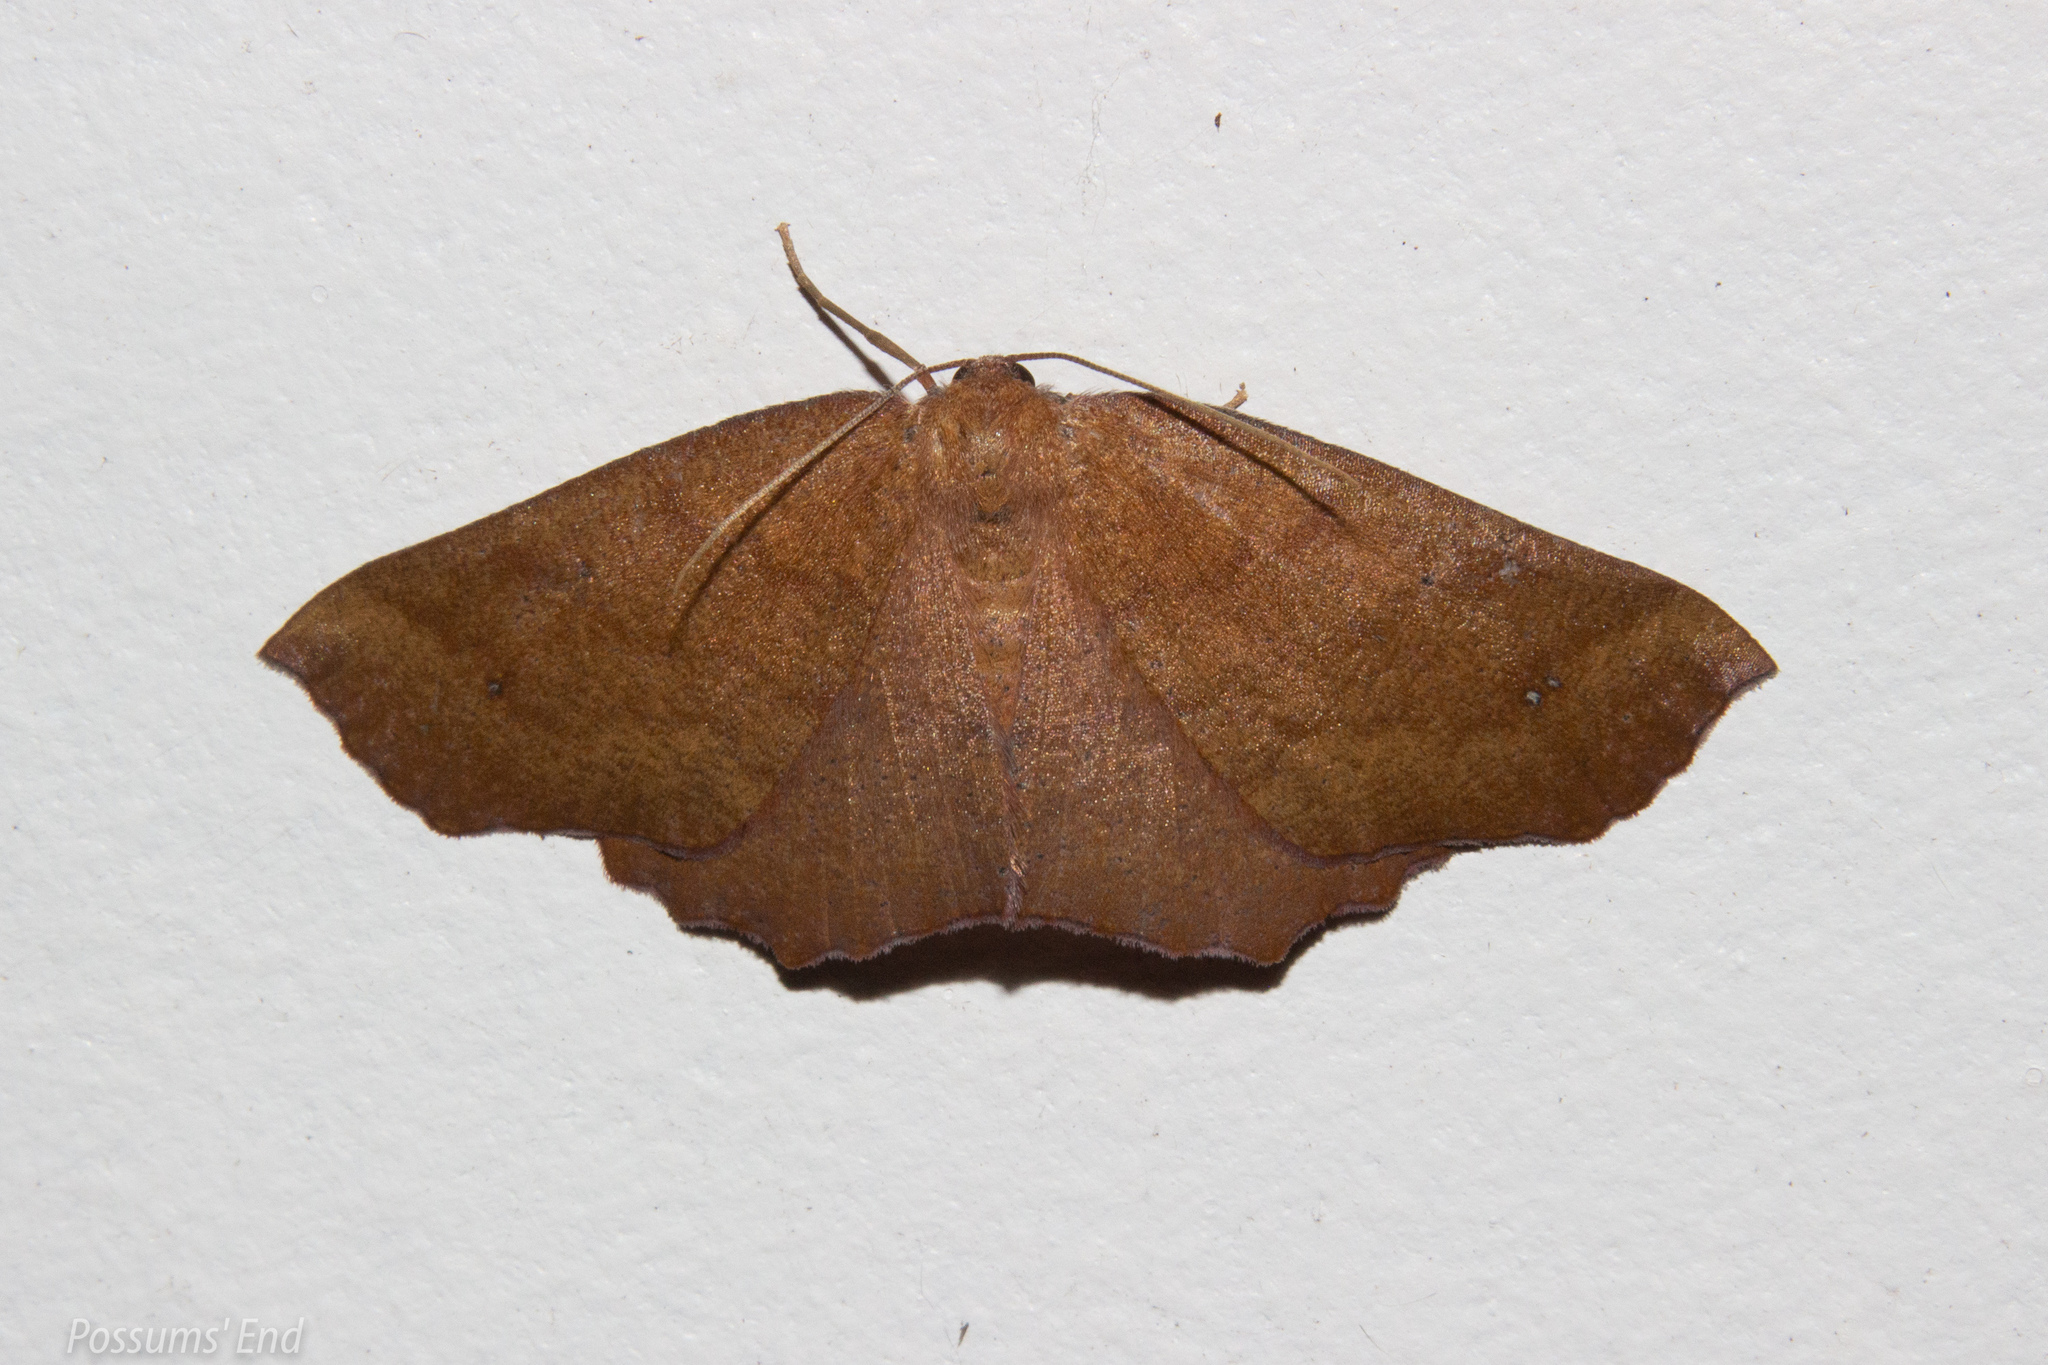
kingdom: Animalia
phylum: Arthropoda
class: Insecta
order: Lepidoptera
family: Geometridae
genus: Xyridacma
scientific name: Xyridacma ustaria
